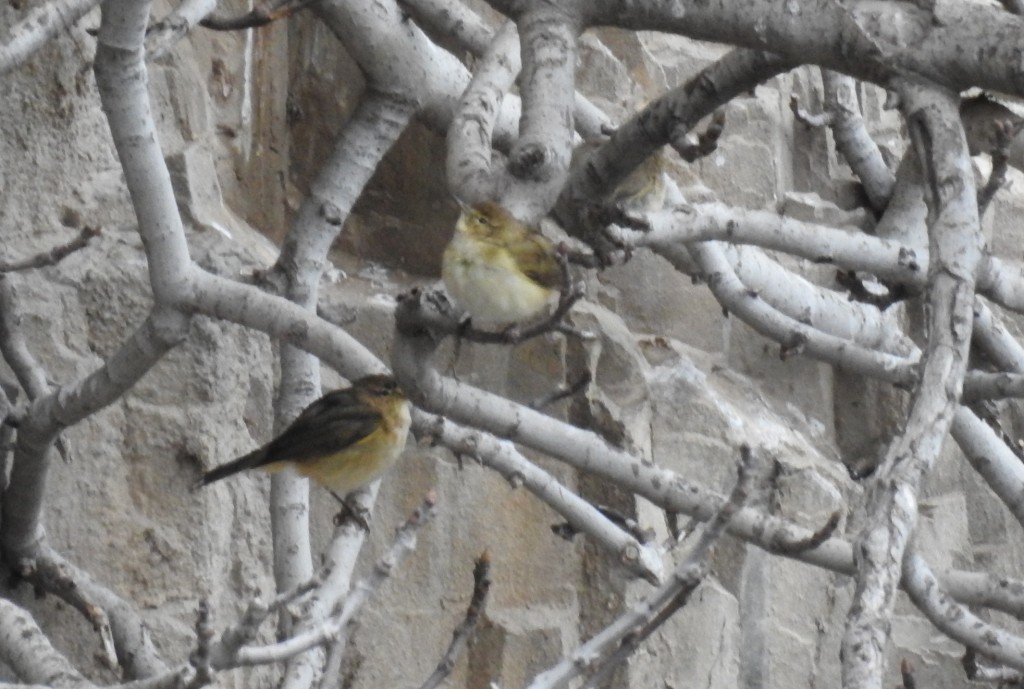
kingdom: Animalia
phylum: Chordata
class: Aves
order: Passeriformes
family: Phylloscopidae
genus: Phylloscopus
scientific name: Phylloscopus collybita
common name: Common chiffchaff
